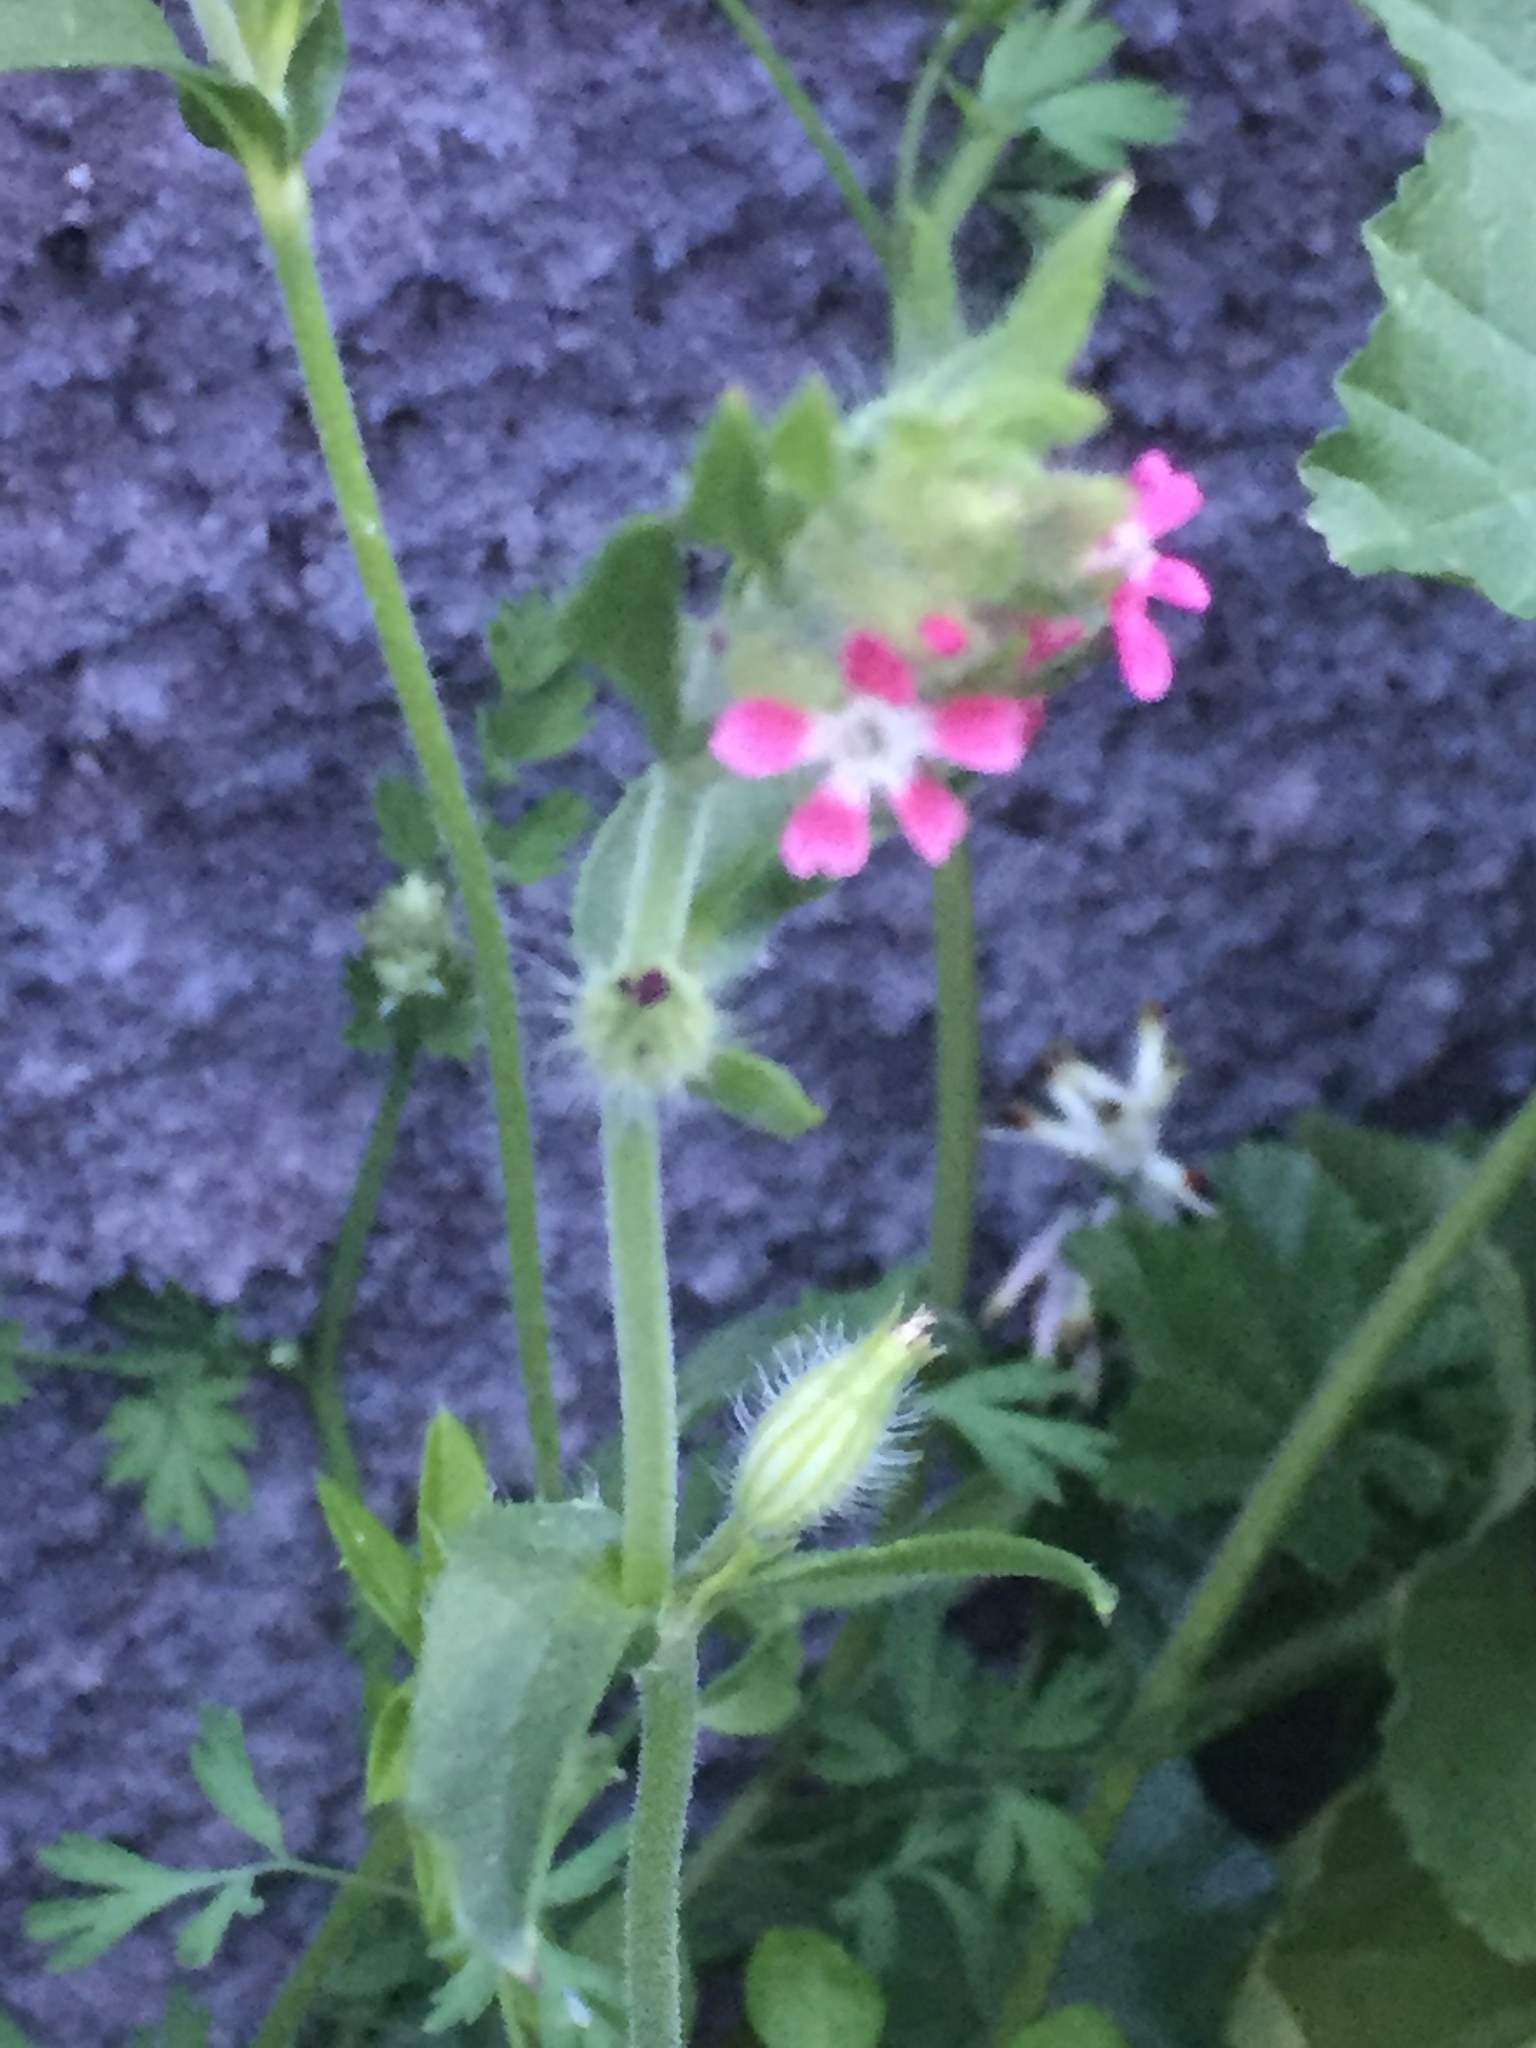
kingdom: Plantae
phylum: Tracheophyta
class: Magnoliopsida
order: Caryophyllales
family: Caryophyllaceae
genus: Silene
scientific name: Silene gallica
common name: Small-flowered catchfly
